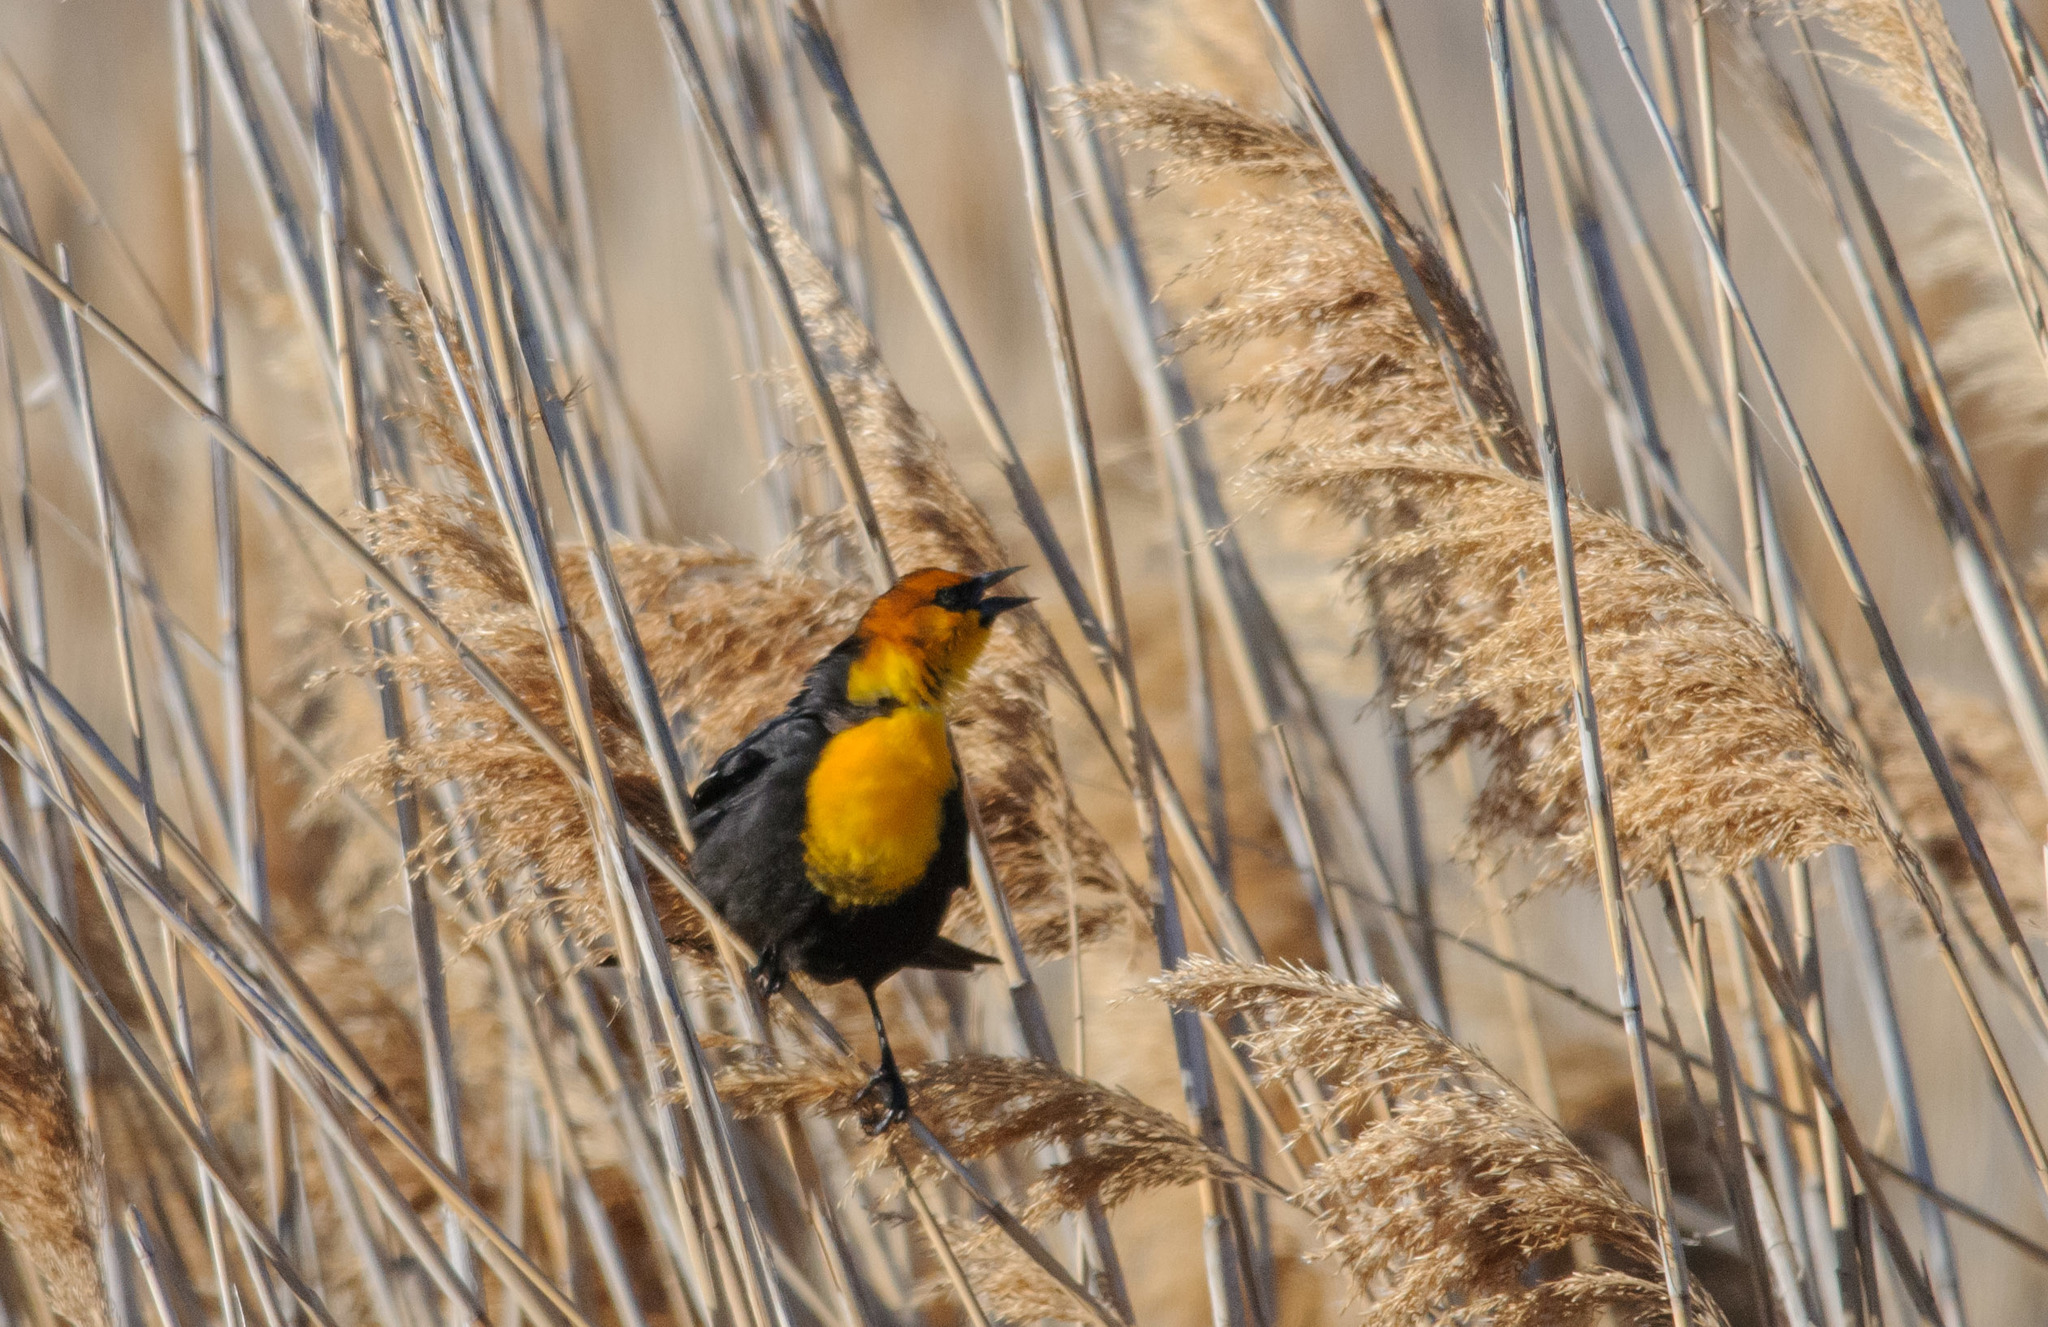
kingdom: Animalia
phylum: Chordata
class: Aves
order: Passeriformes
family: Icteridae
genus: Xanthocephalus
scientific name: Xanthocephalus xanthocephalus
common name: Yellow-headed blackbird
